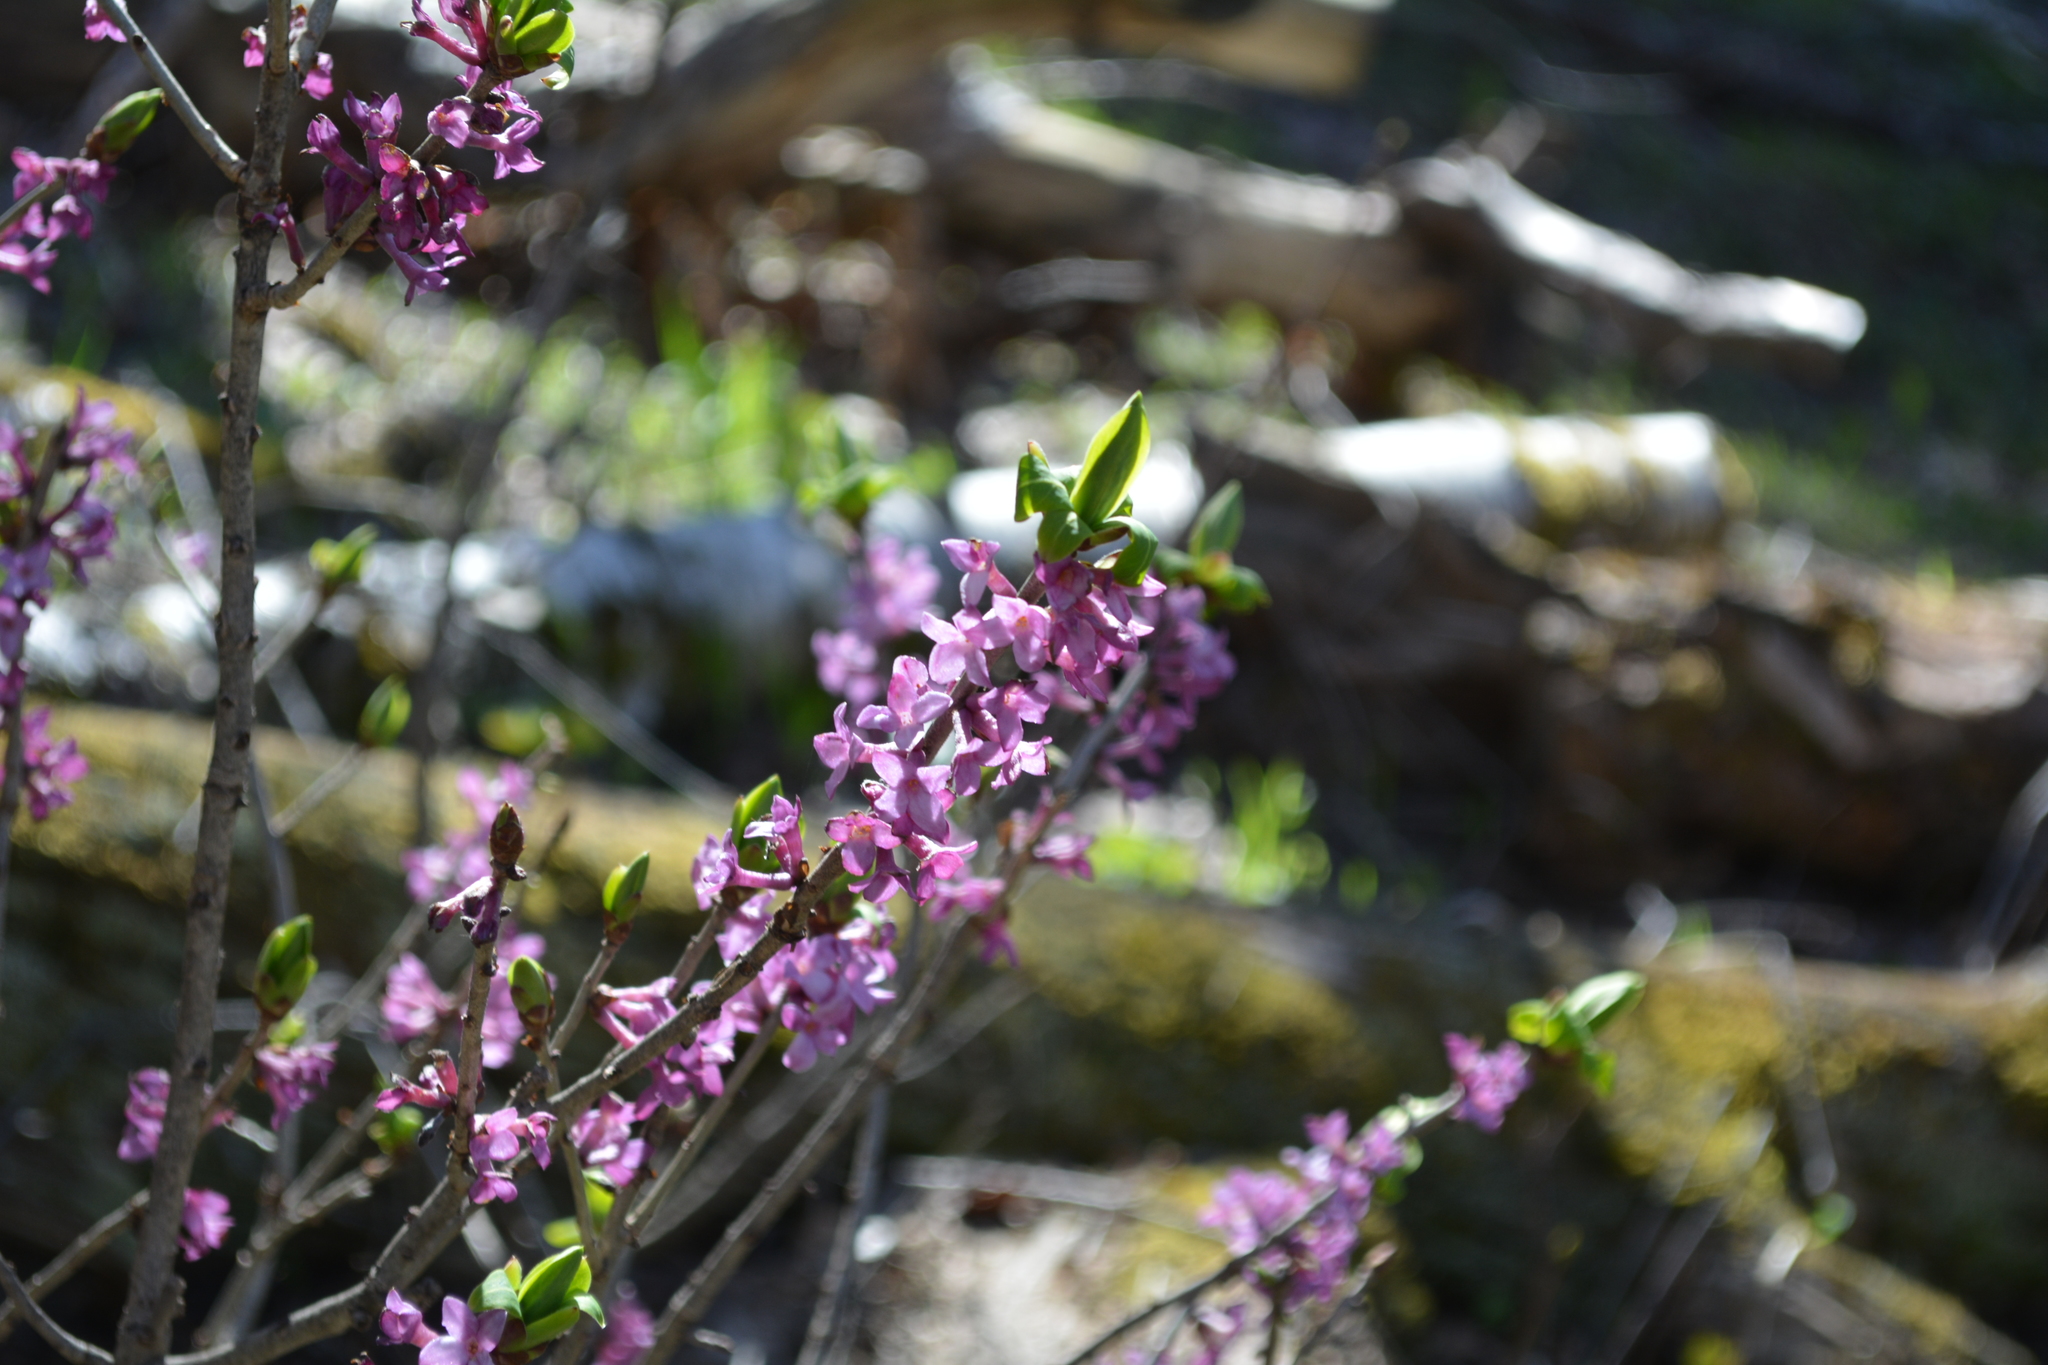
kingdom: Plantae
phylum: Tracheophyta
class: Magnoliopsida
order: Malvales
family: Thymelaeaceae
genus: Daphne
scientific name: Daphne mezereum
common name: Mezereon
